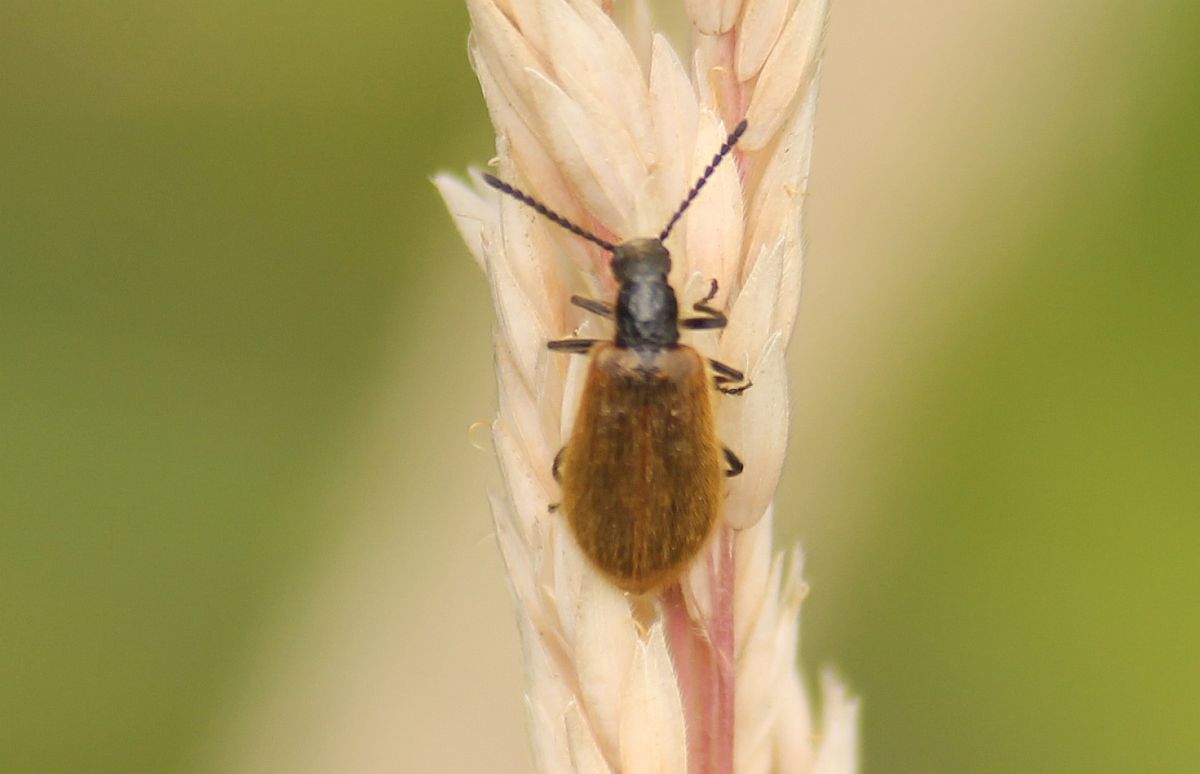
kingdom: Animalia
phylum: Arthropoda
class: Insecta
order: Coleoptera
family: Tenebrionidae
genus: Lagria
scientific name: Lagria hirta
